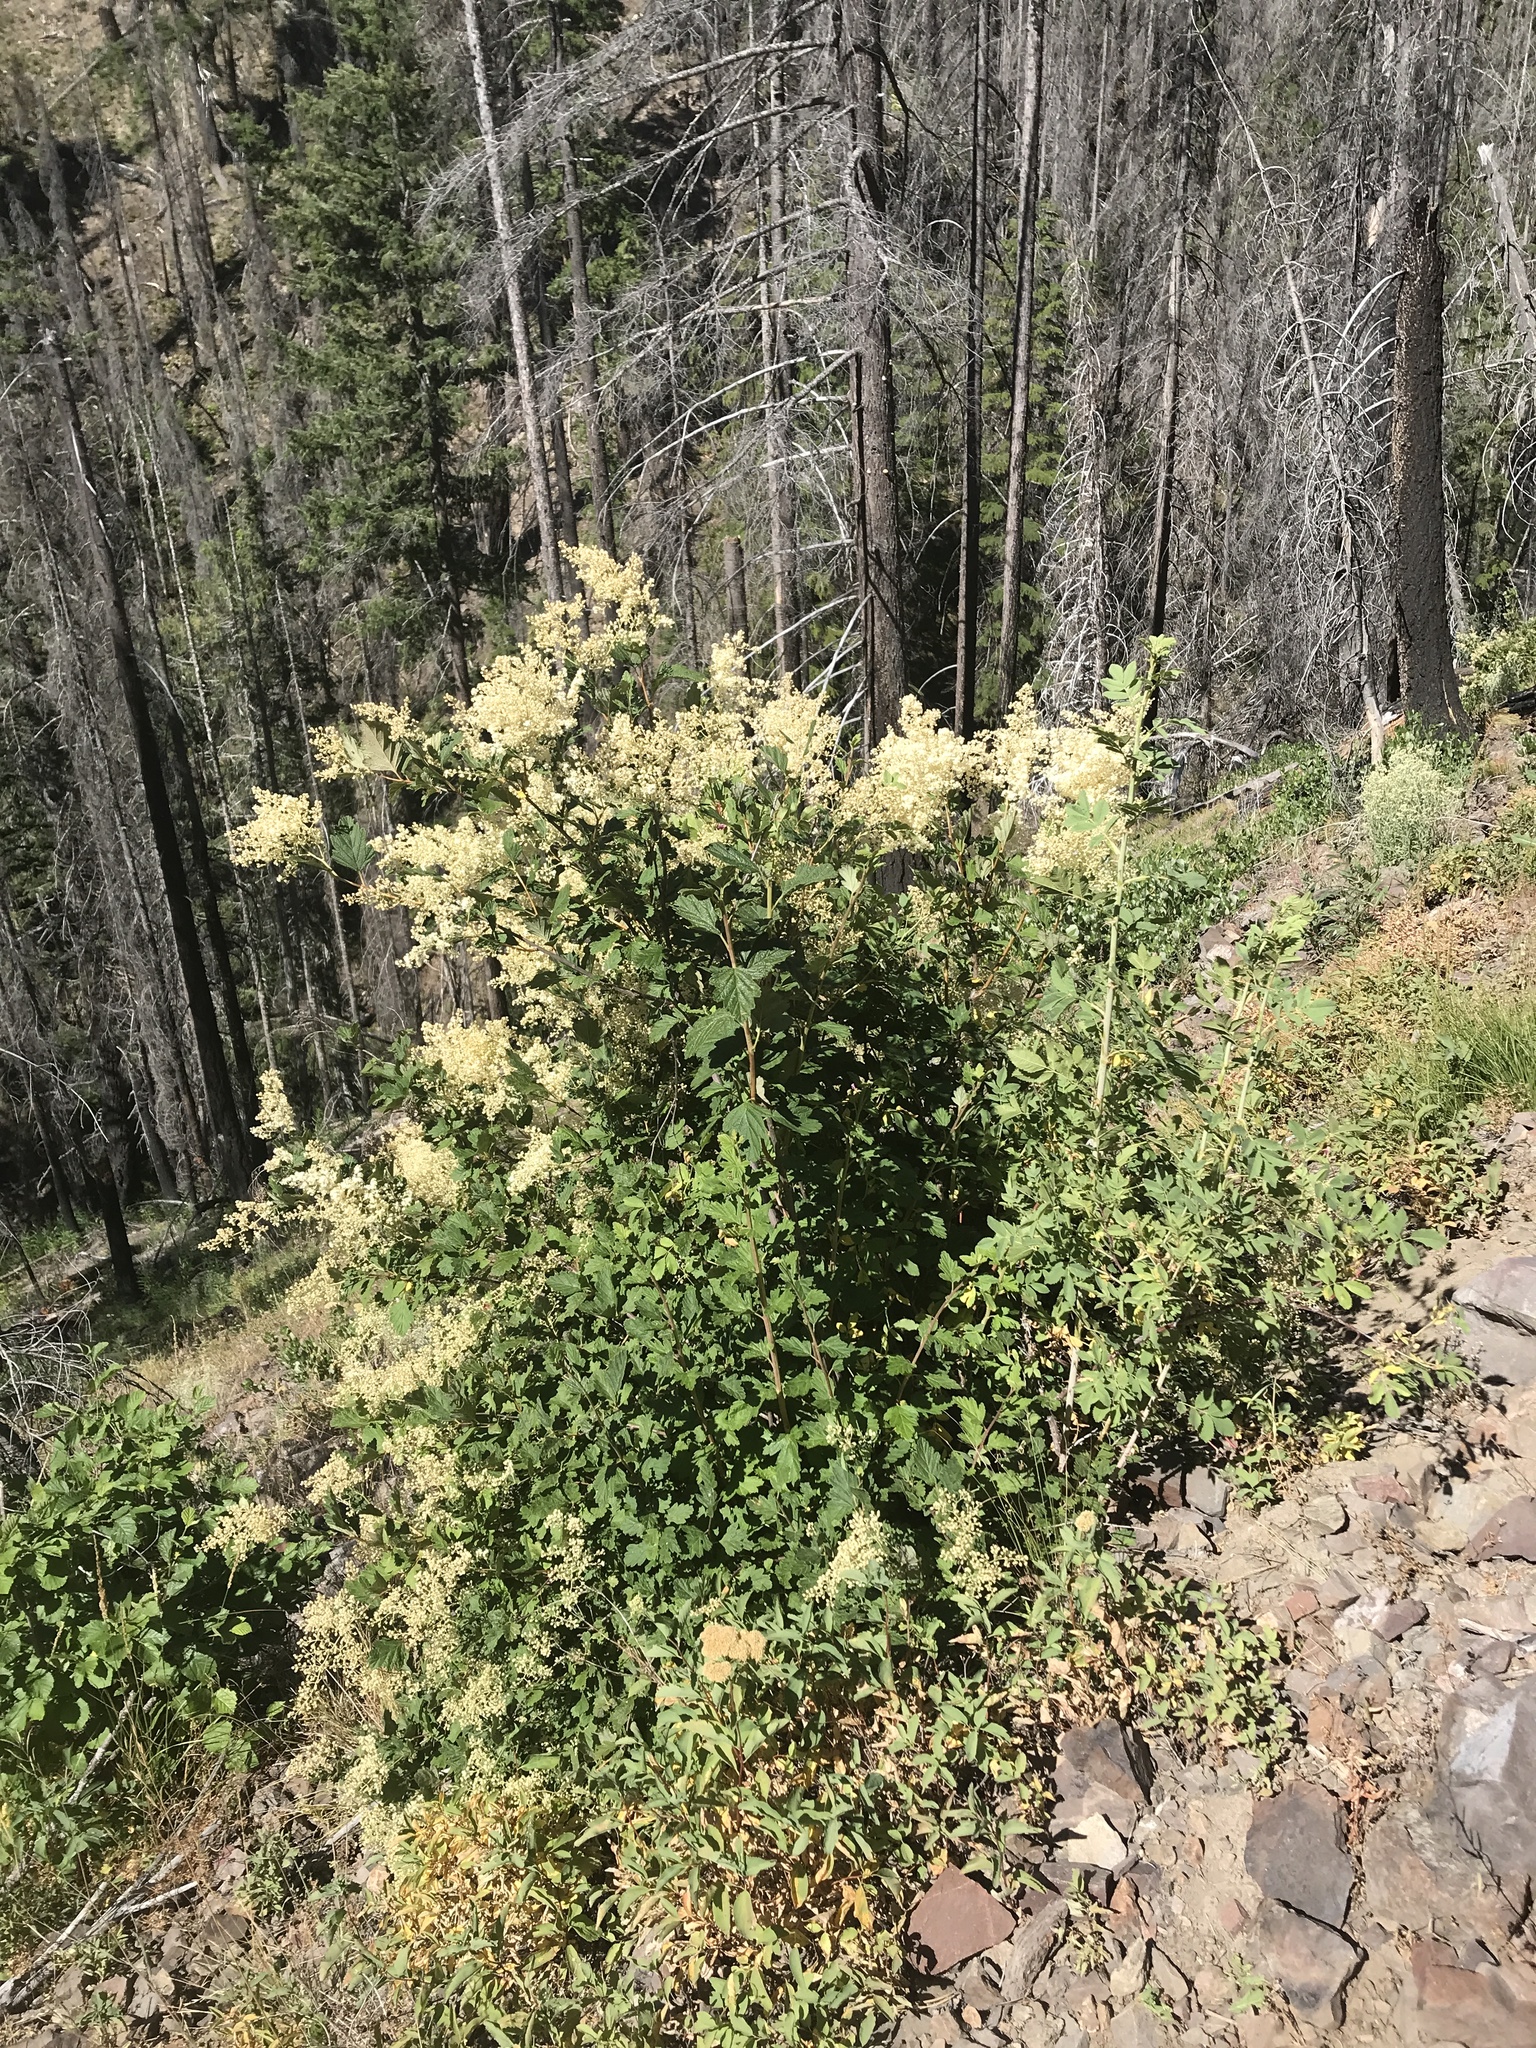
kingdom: Plantae
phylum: Tracheophyta
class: Magnoliopsida
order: Rosales
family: Rosaceae
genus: Holodiscus
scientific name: Holodiscus discolor
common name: Oceanspray
